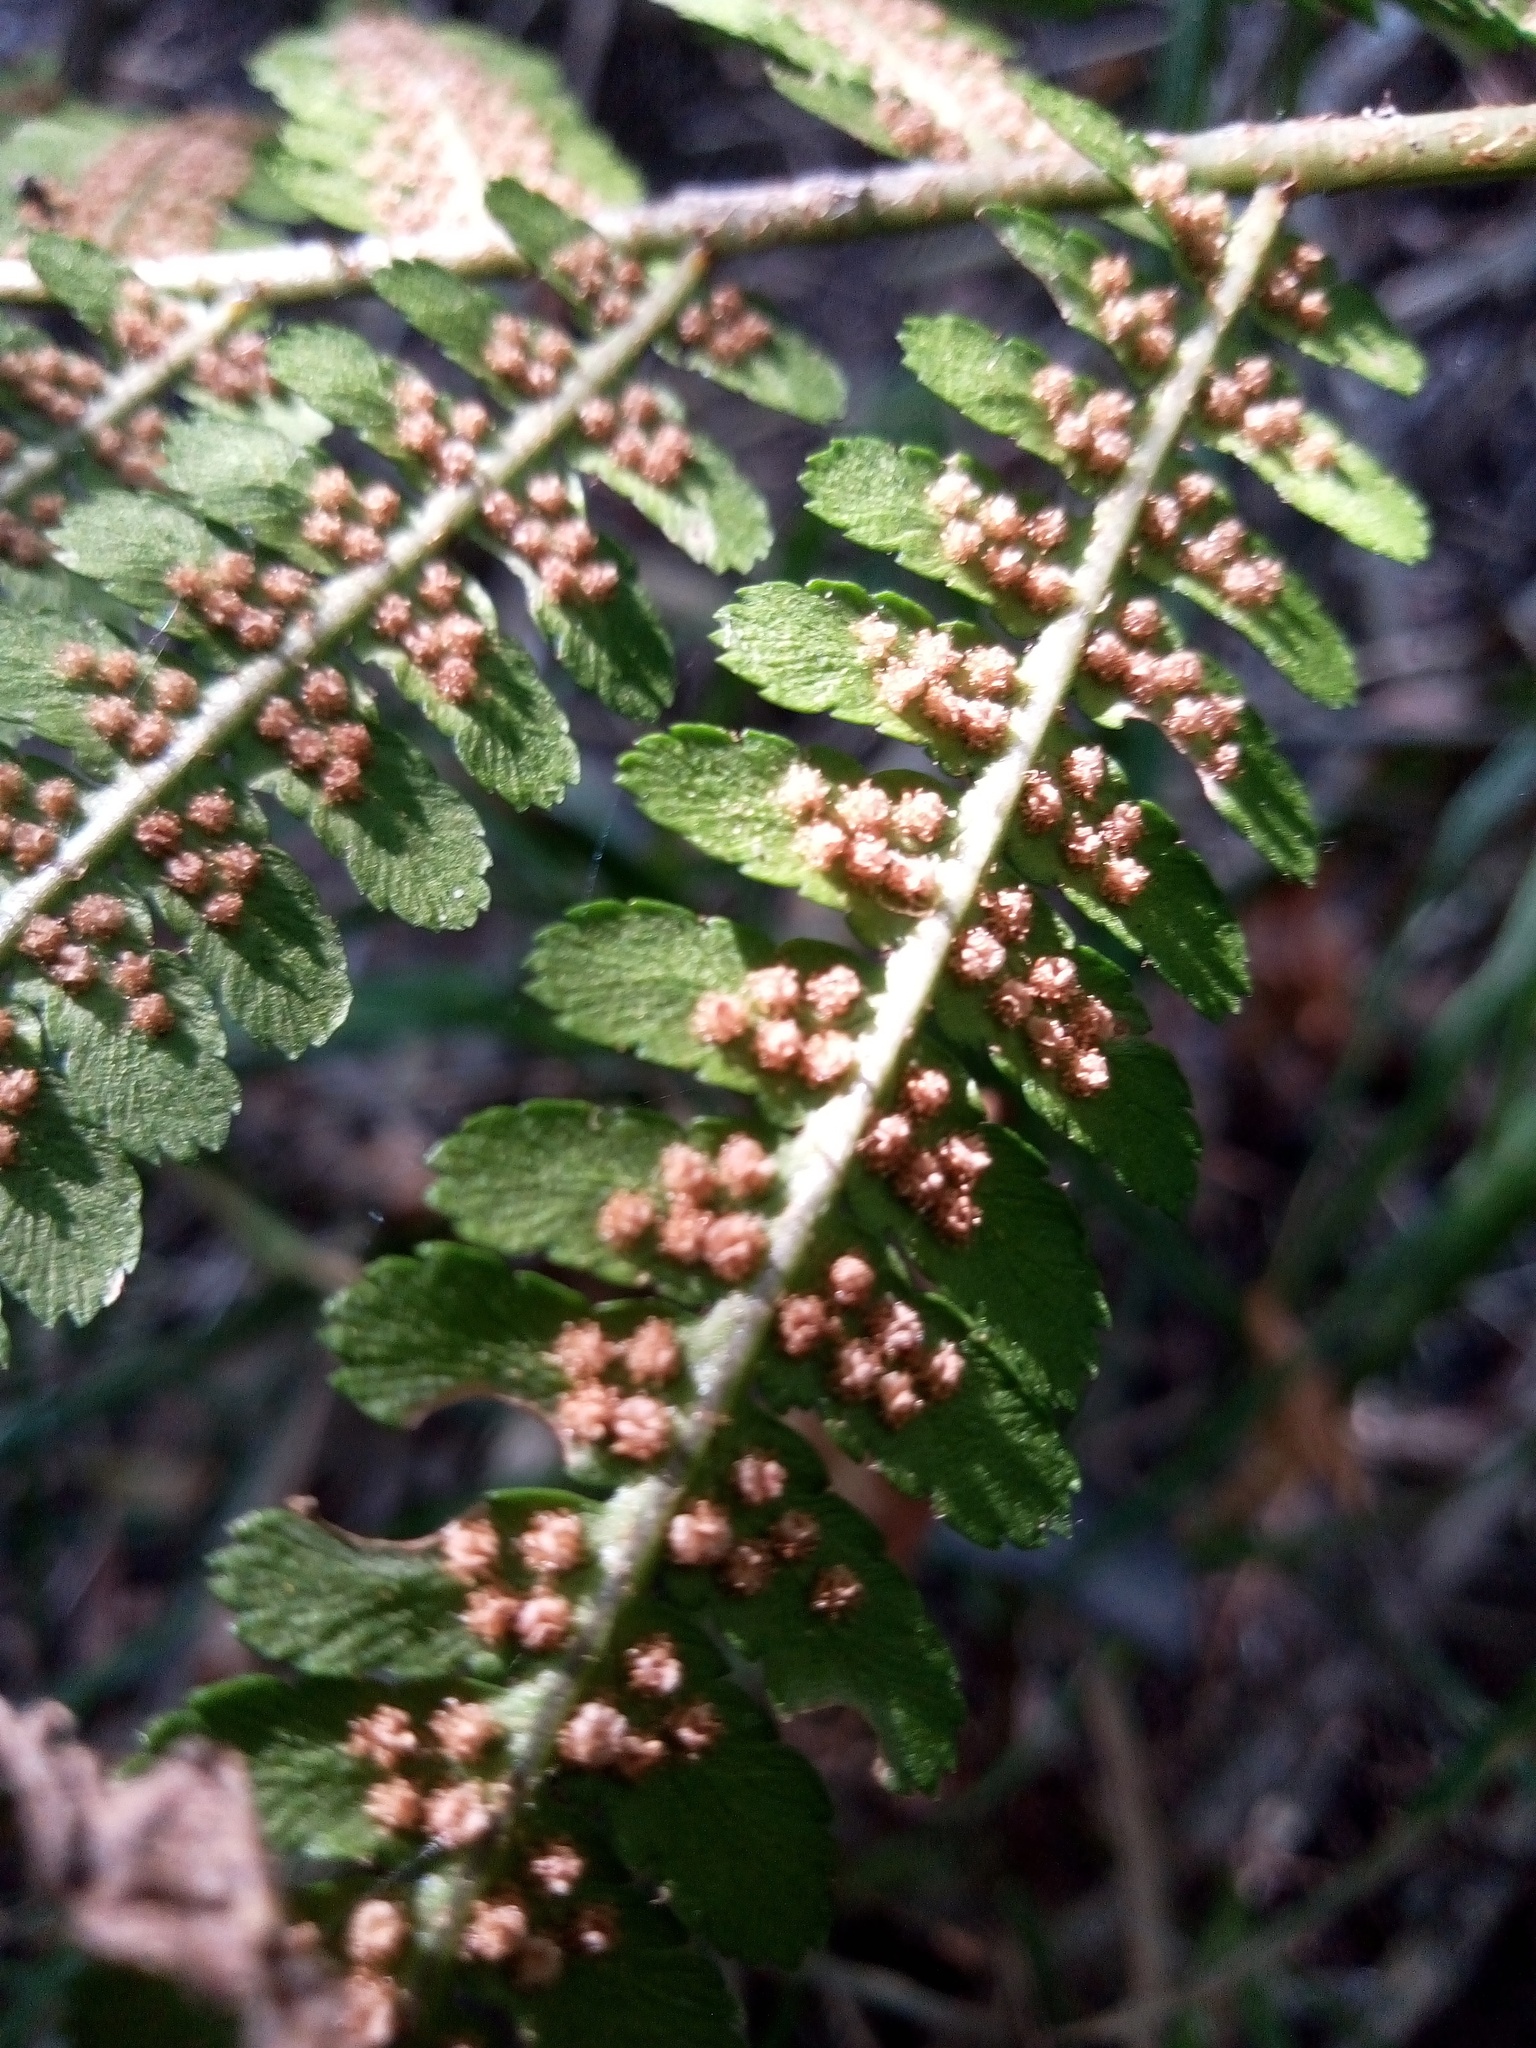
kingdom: Plantae
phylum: Tracheophyta
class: Polypodiopsida
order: Polypodiales
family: Dryopteridaceae
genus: Dryopteris
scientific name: Dryopteris filix-mas
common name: Male fern
